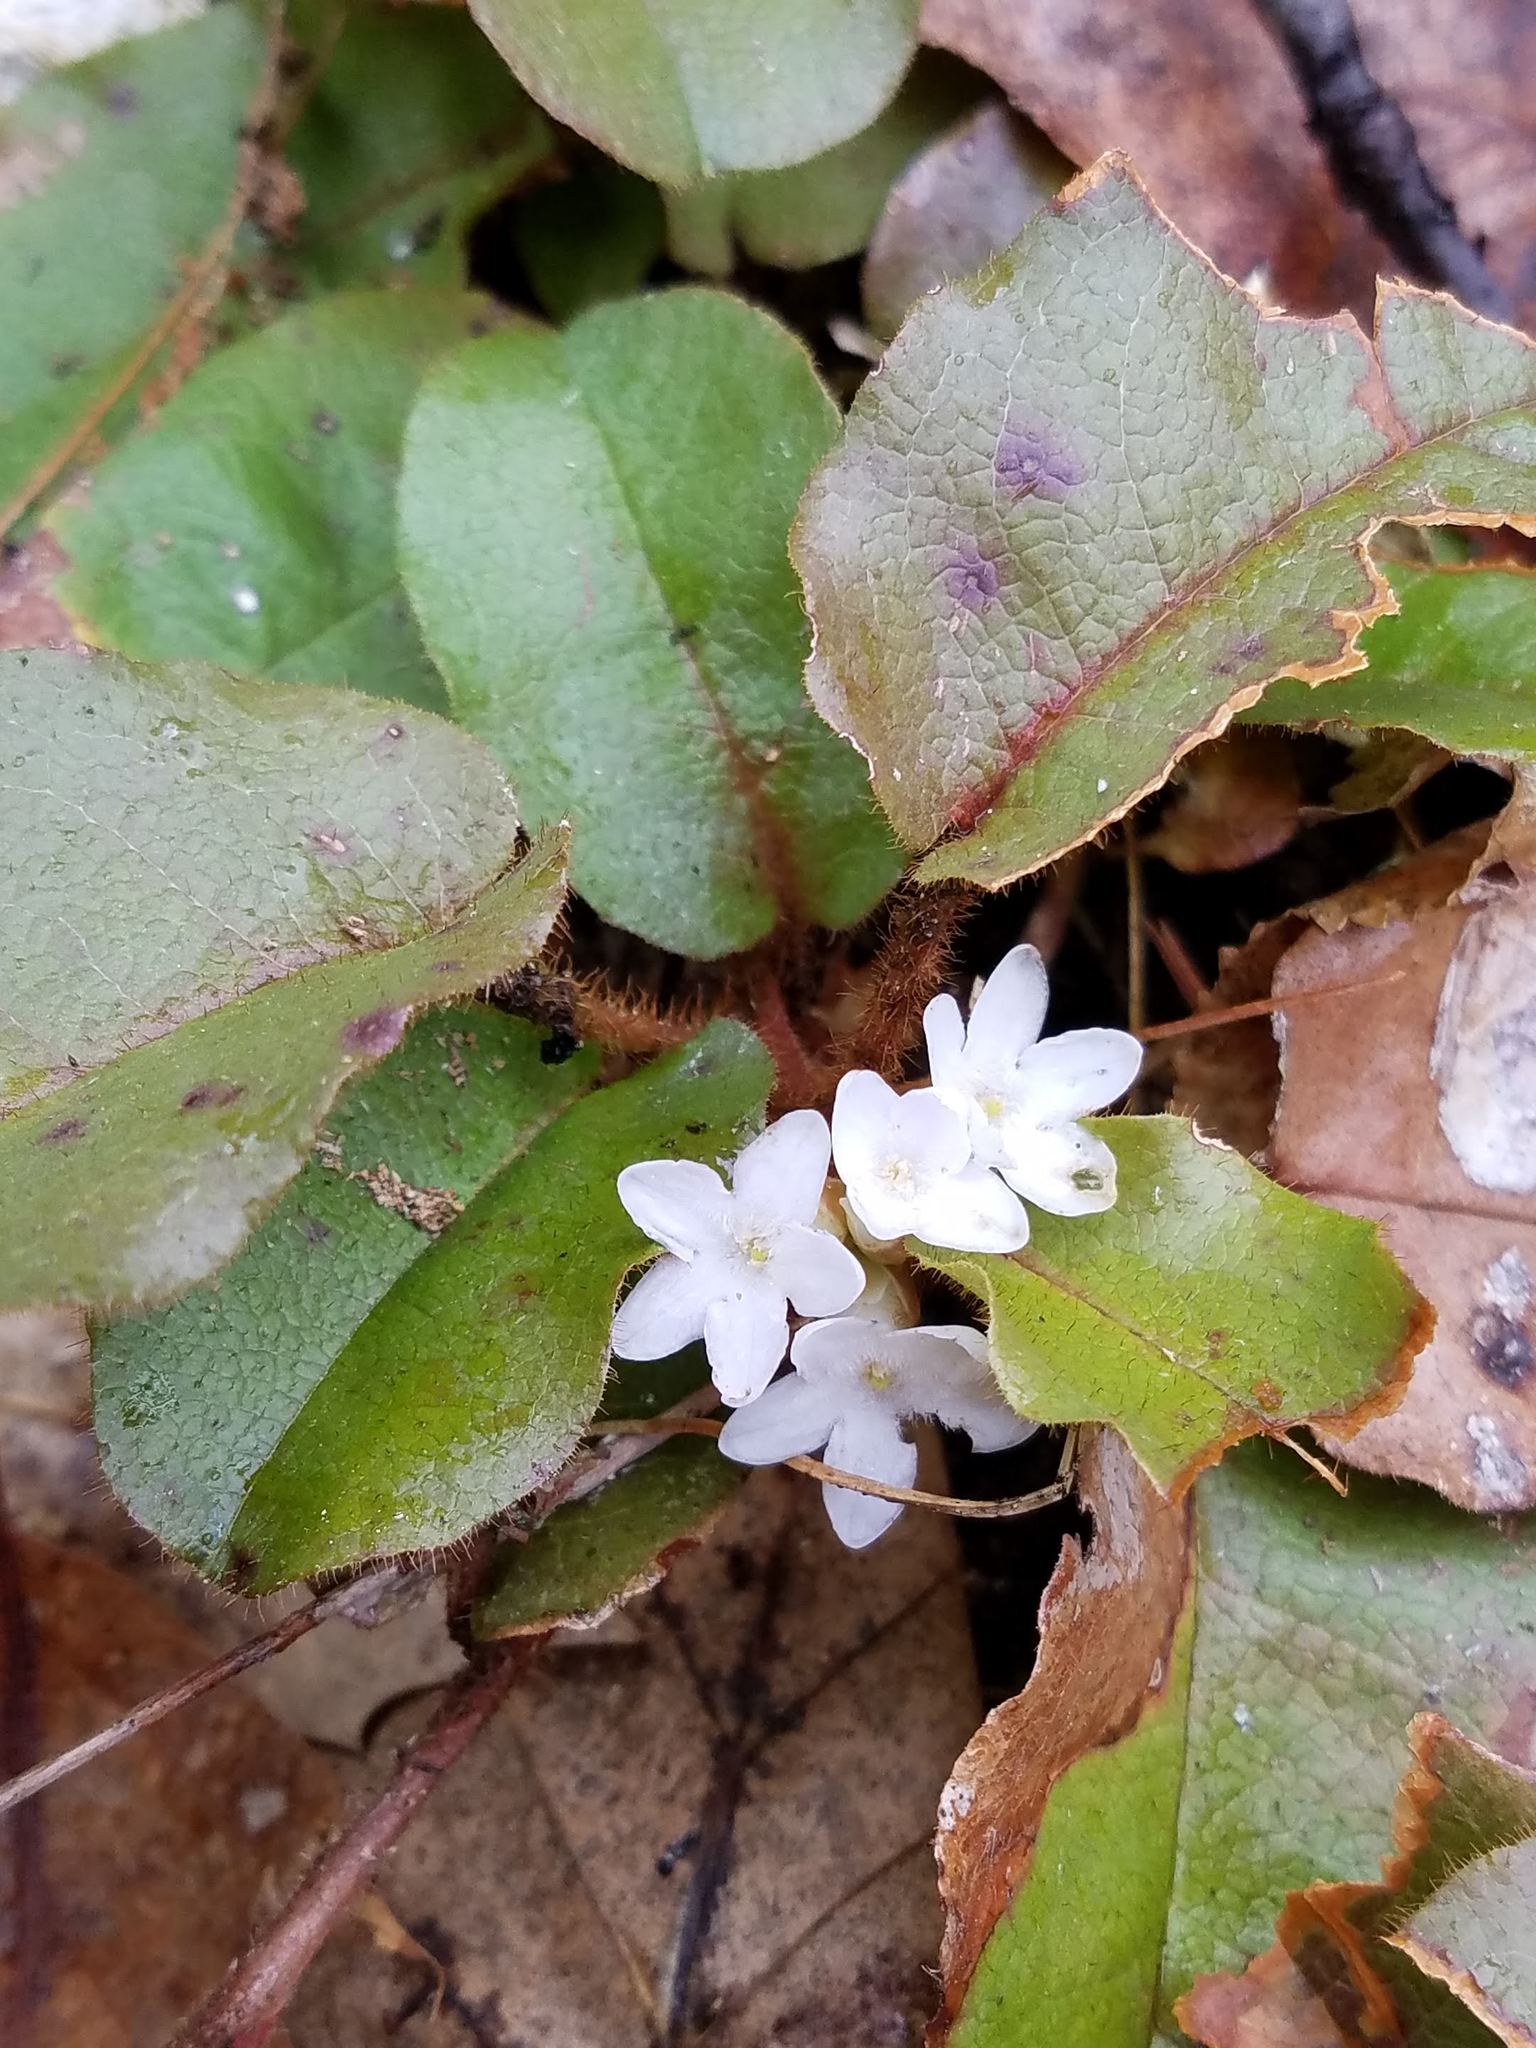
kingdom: Plantae
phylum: Tracheophyta
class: Magnoliopsida
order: Ericales
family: Ericaceae
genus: Epigaea
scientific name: Epigaea repens
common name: Gravelroot
